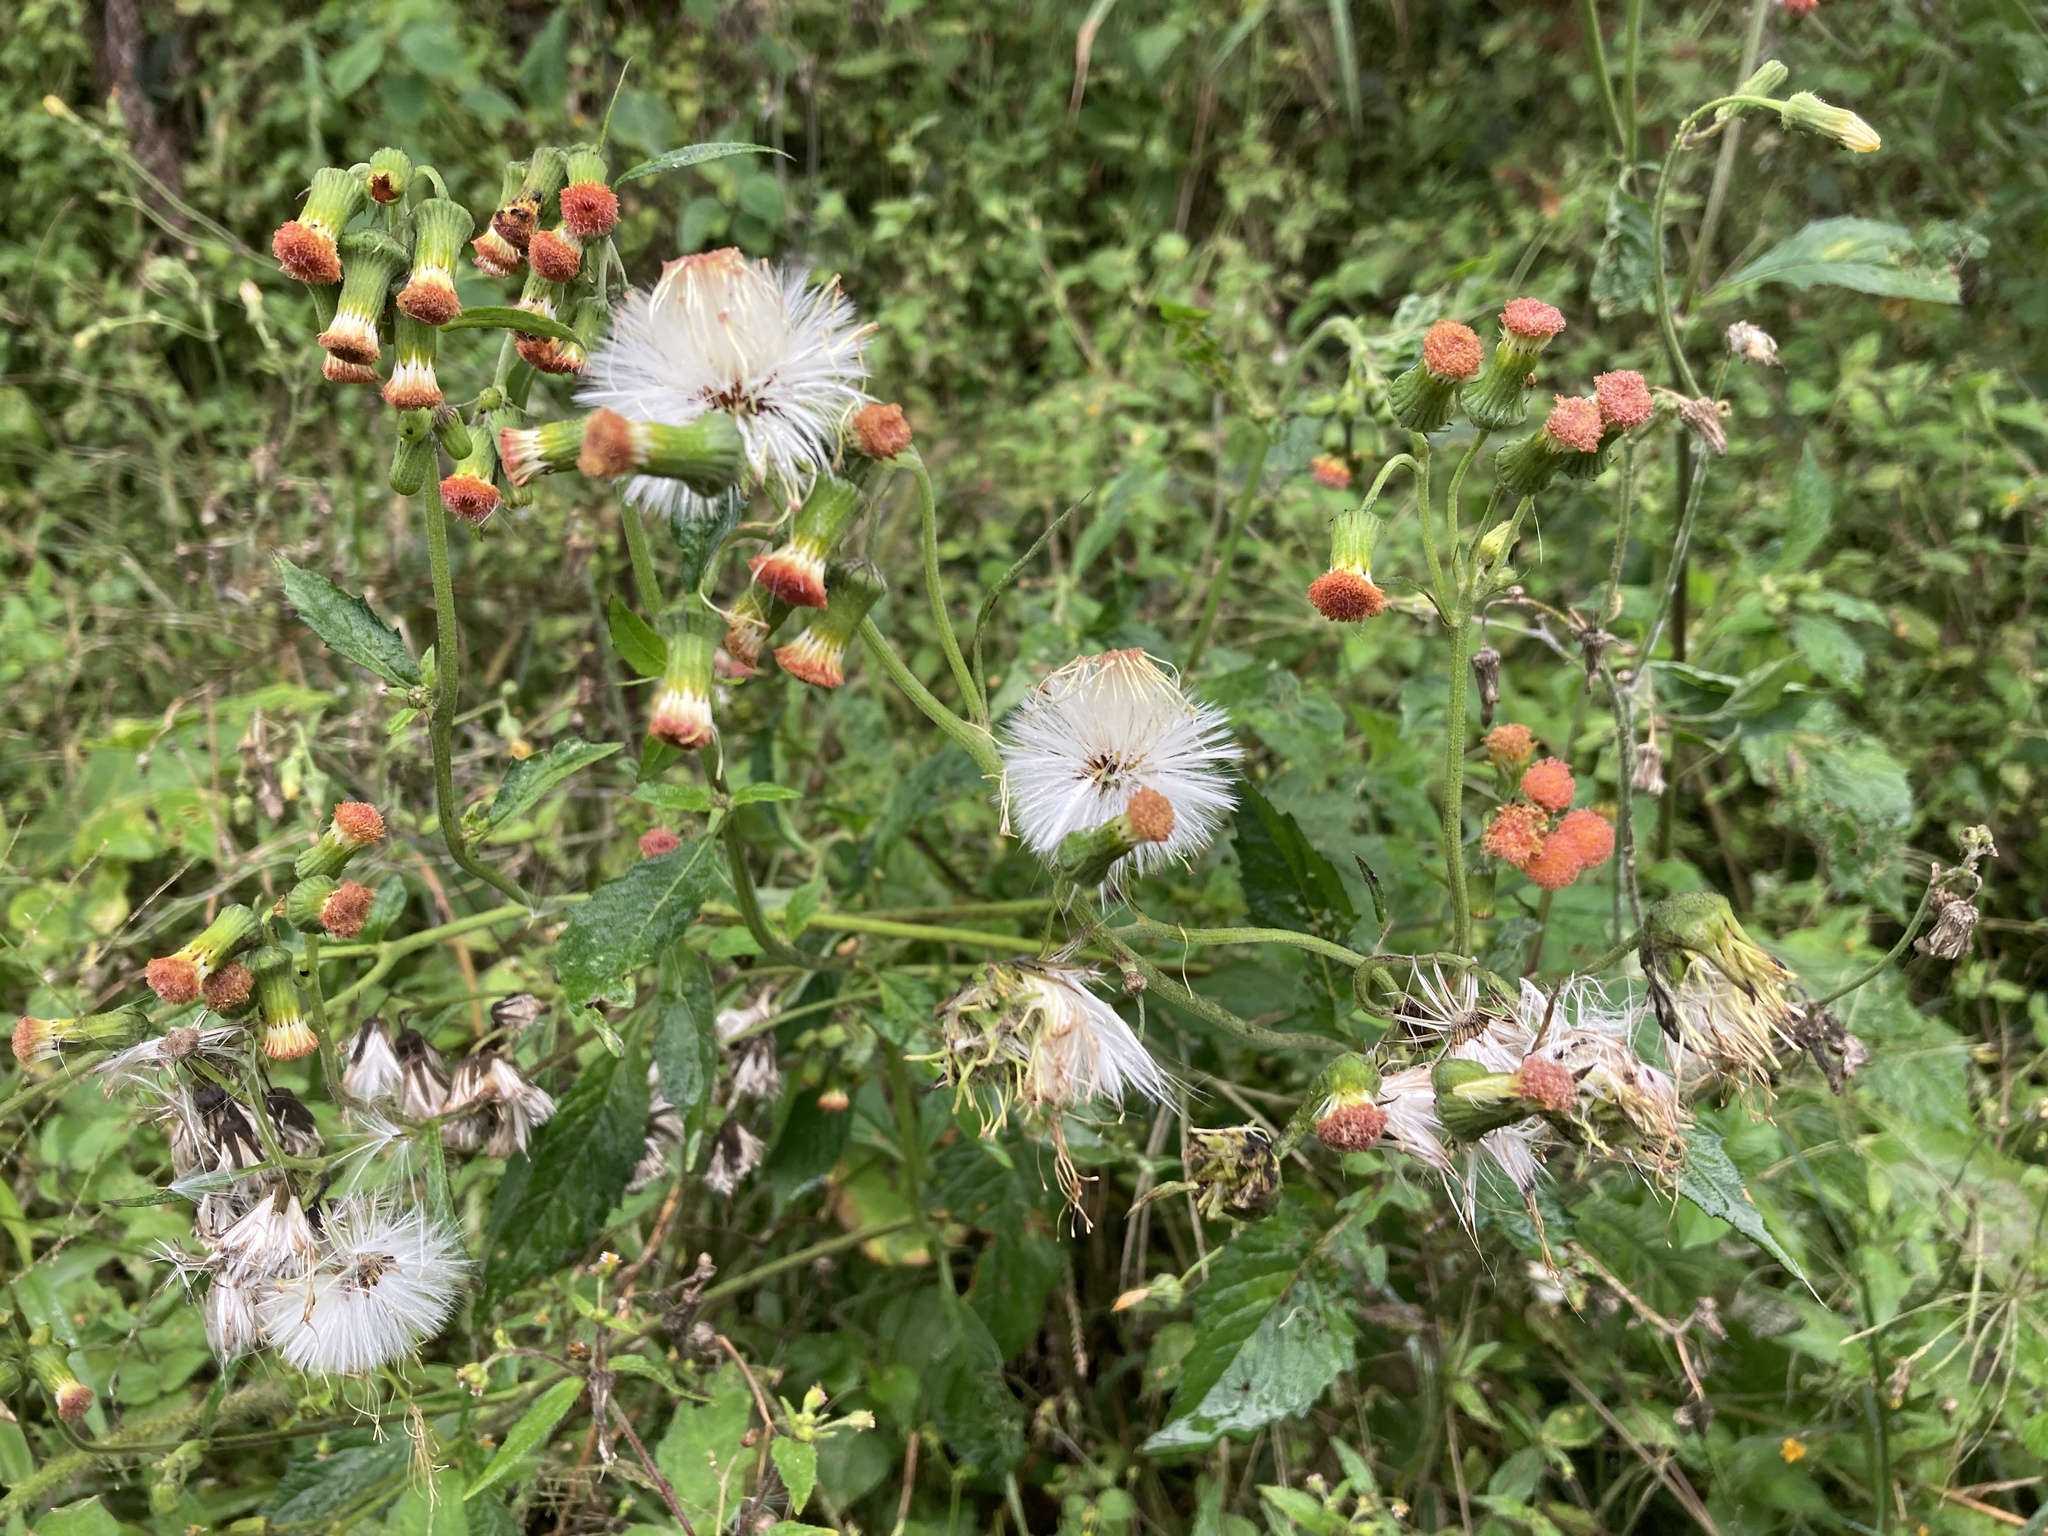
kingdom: Plantae
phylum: Tracheophyta
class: Magnoliopsida
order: Asterales
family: Asteraceae
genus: Crassocephalum
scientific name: Crassocephalum crepidioides
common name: Redflower ragleaf
